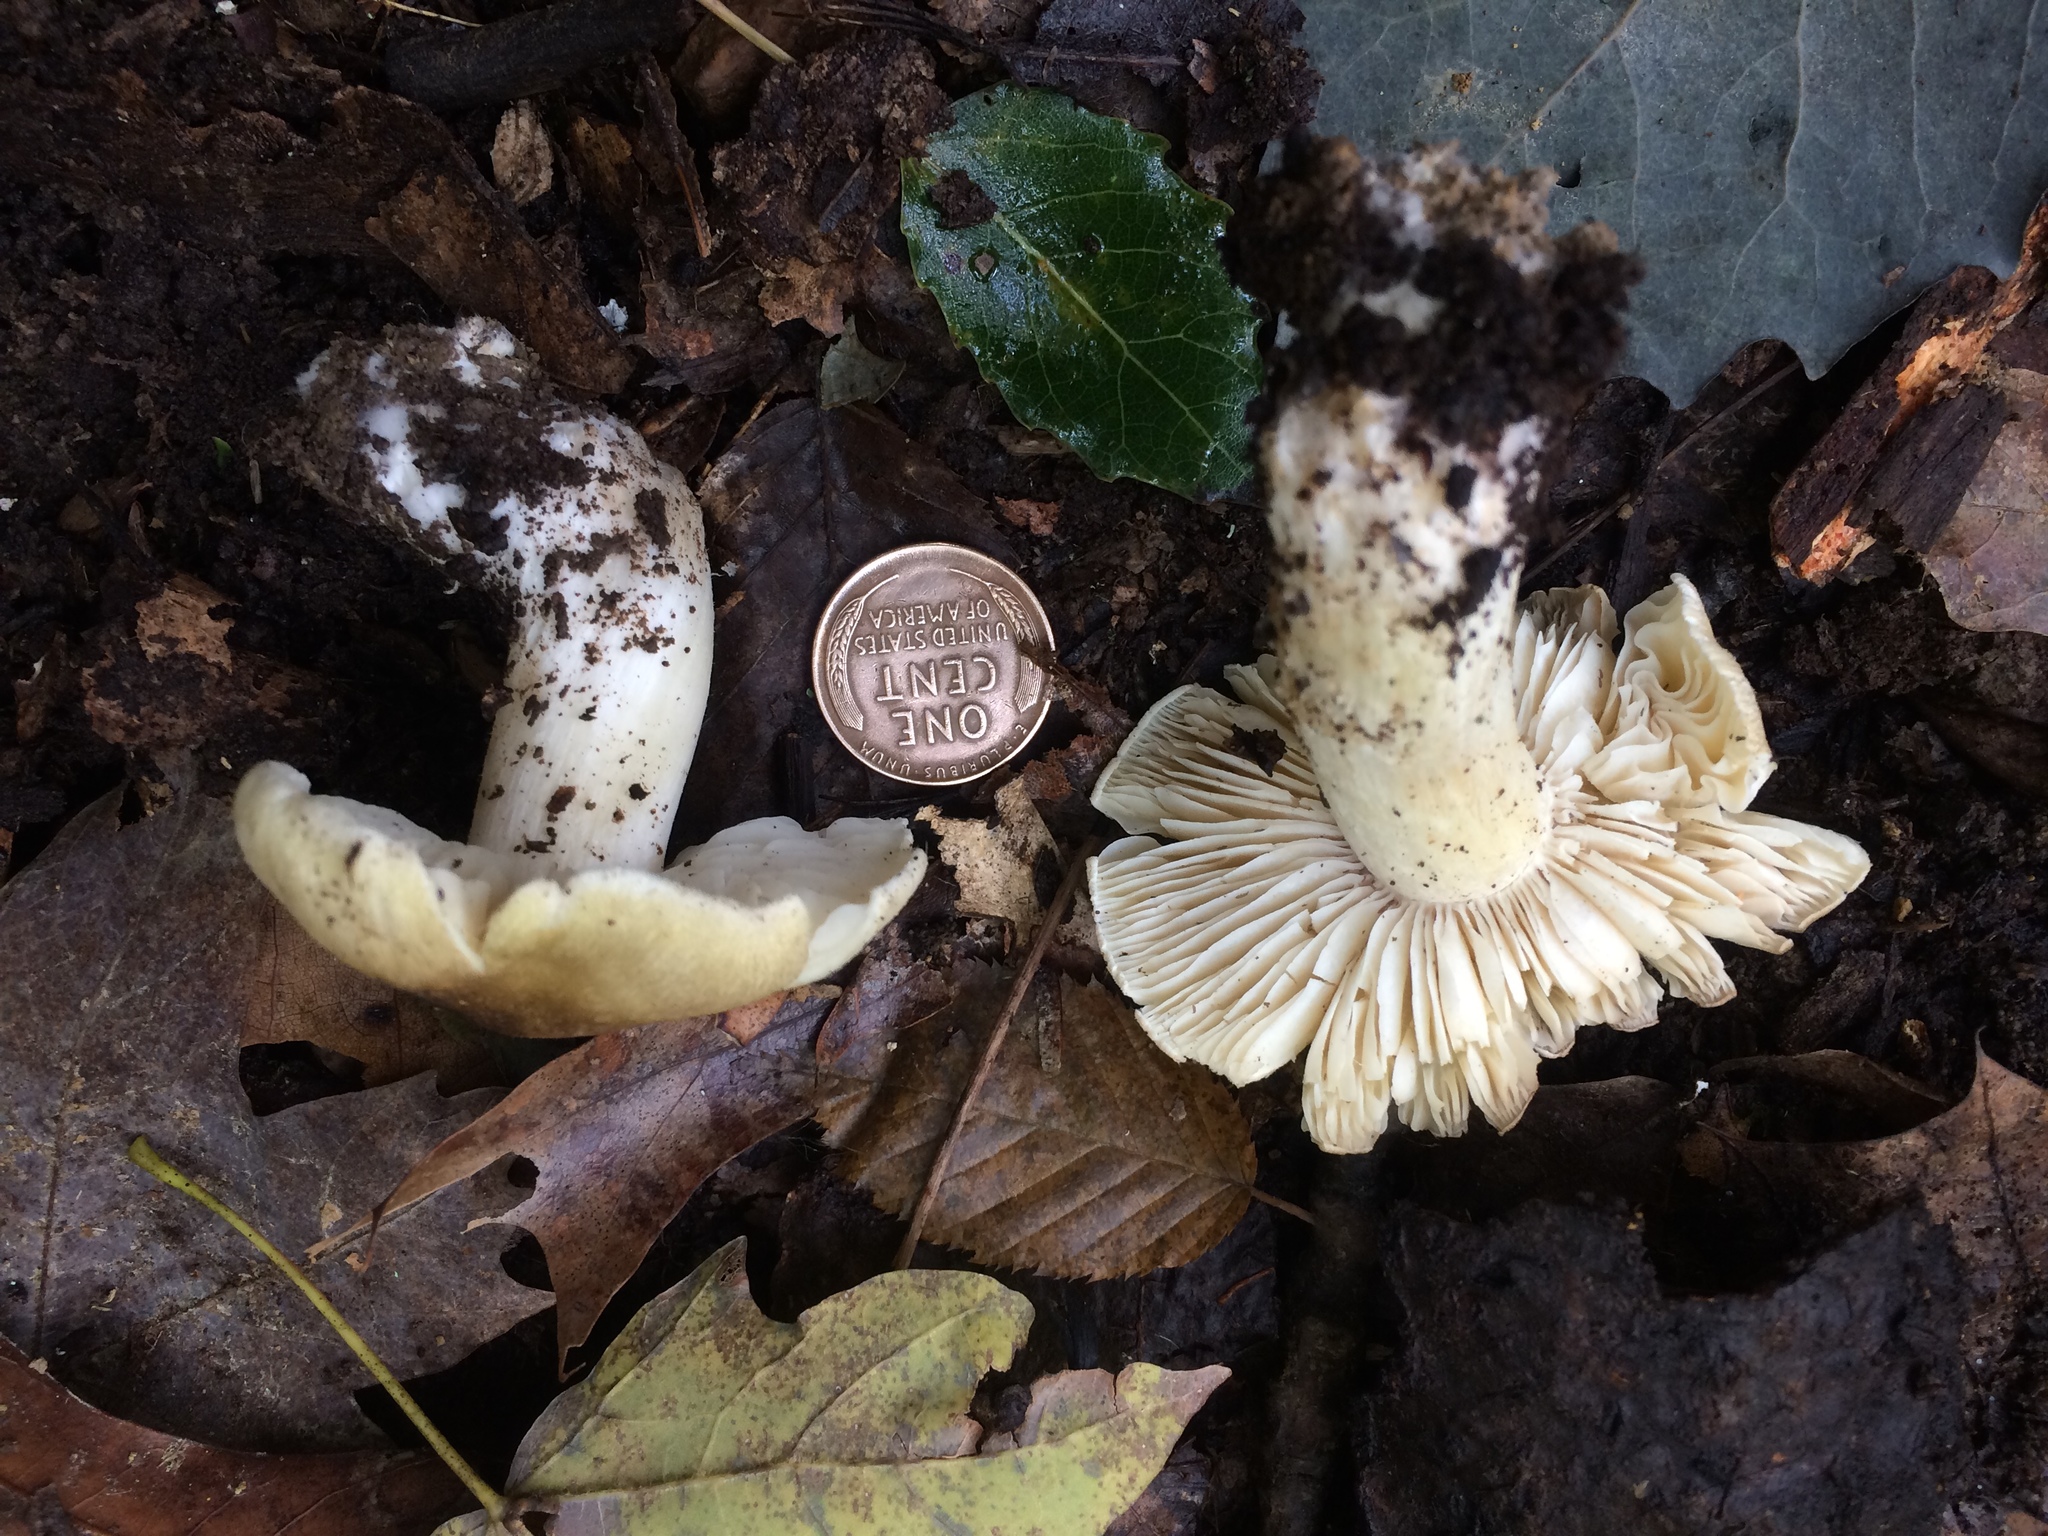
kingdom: Fungi
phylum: Basidiomycota
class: Agaricomycetes
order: Agaricales
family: Tricholomataceae
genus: Tricholoma
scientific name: Tricholoma sejunctum
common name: Deceiving knight
